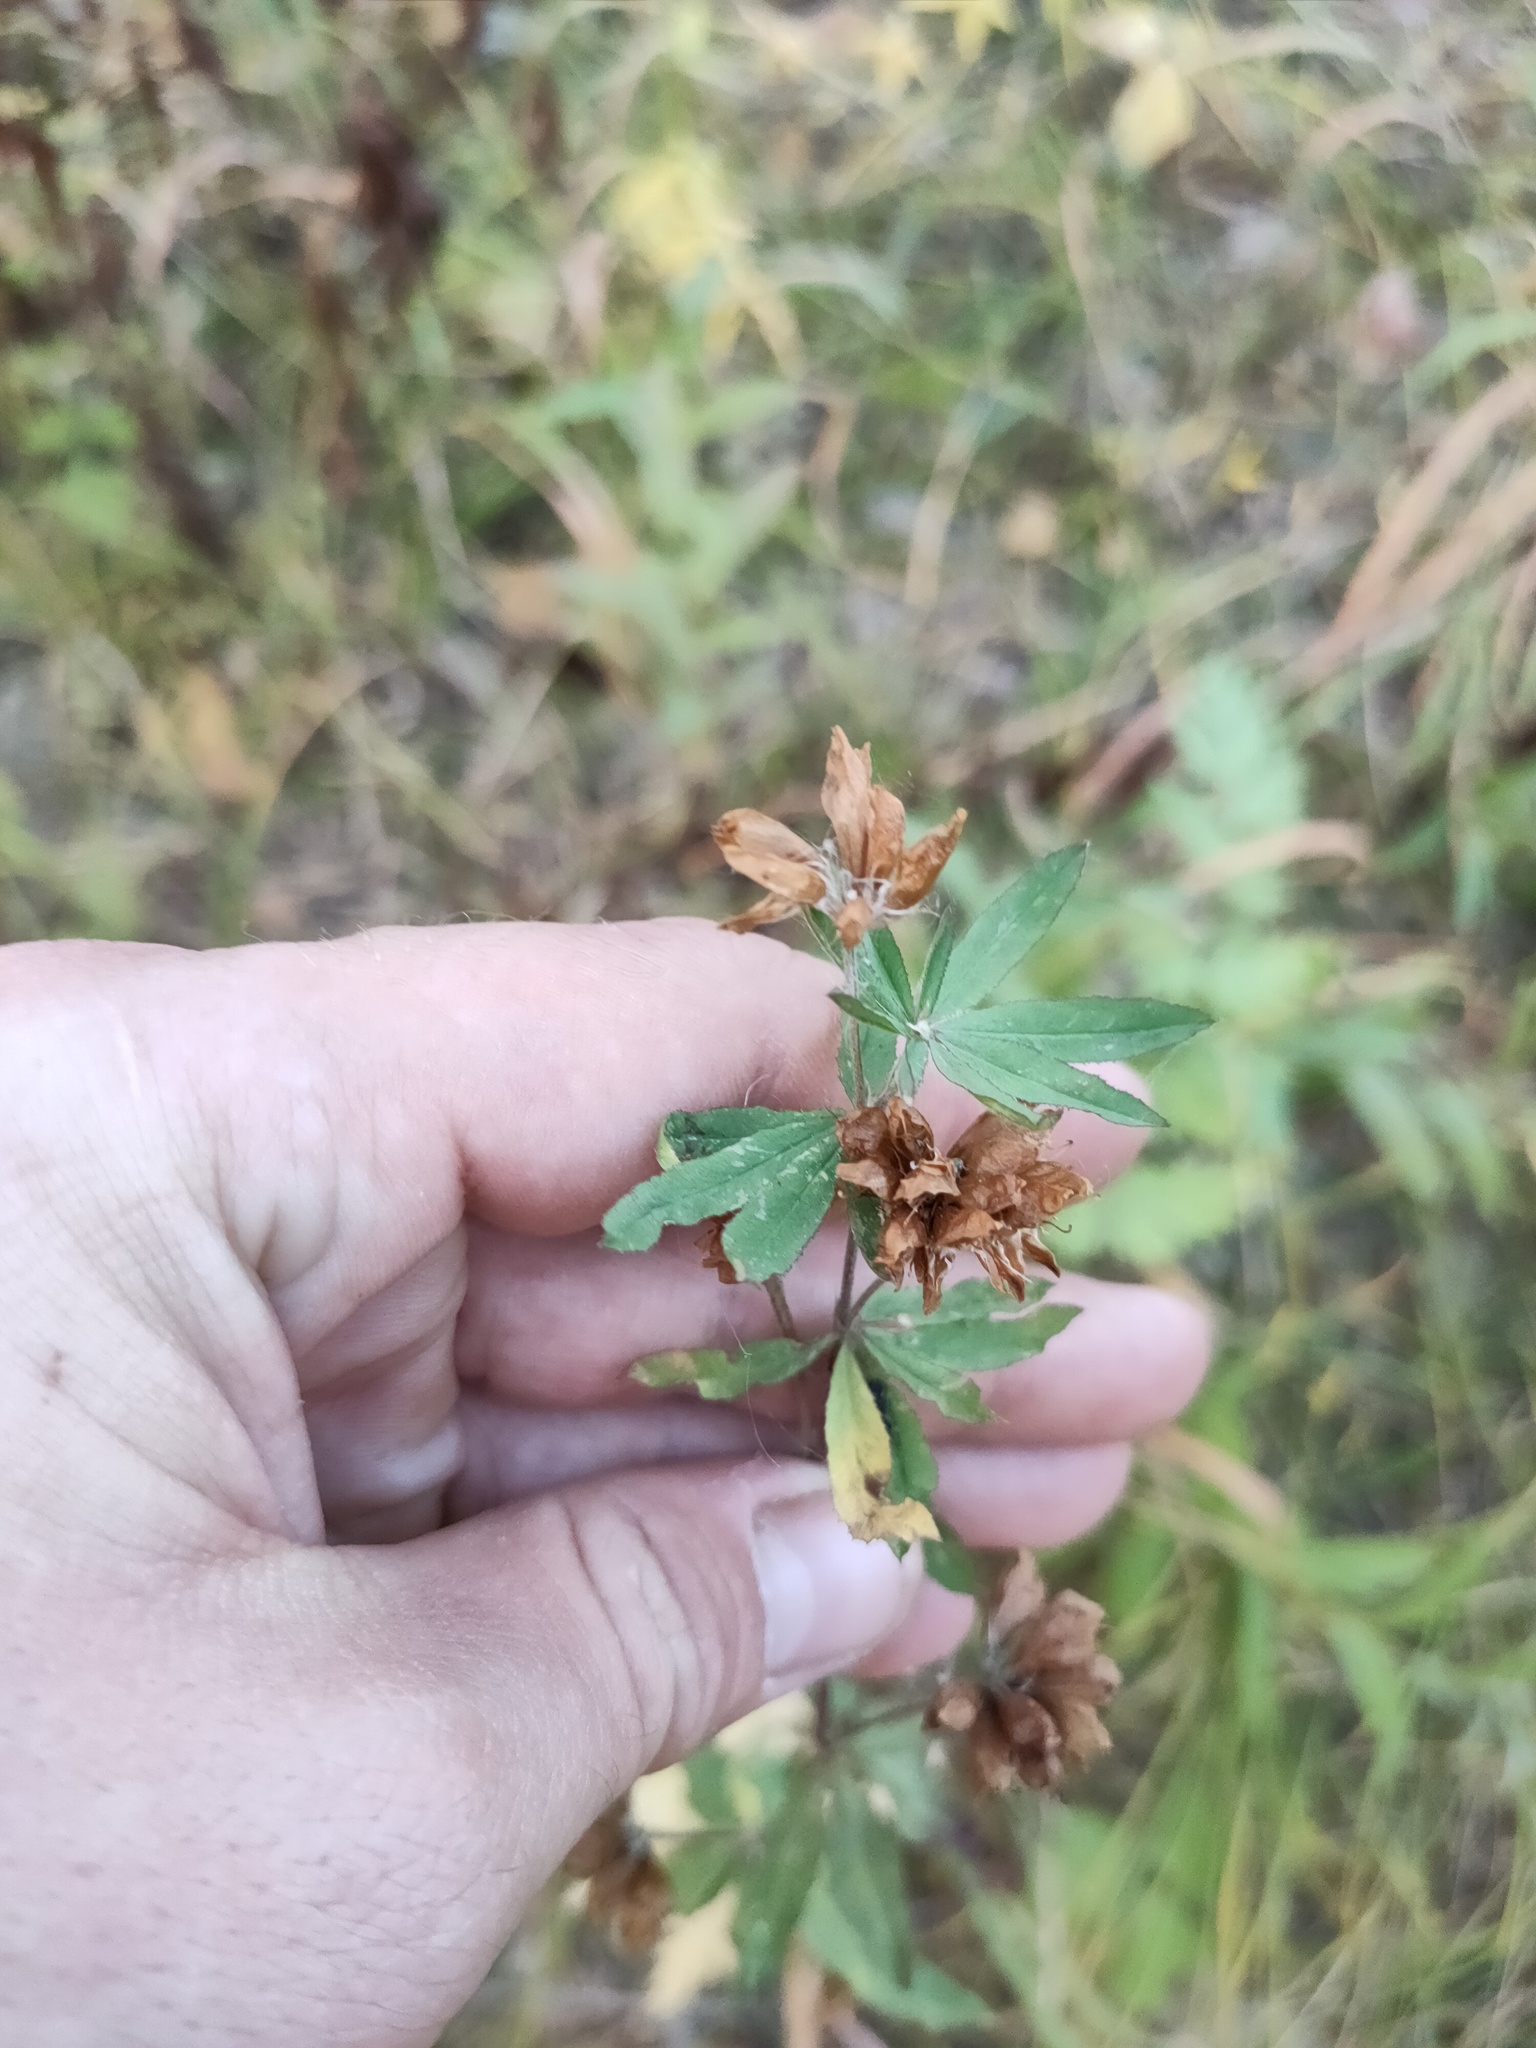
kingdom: Plantae
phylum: Tracheophyta
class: Magnoliopsida
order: Fabales
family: Fabaceae
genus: Trifolium
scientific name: Trifolium lupinaster
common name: Lupine clover
